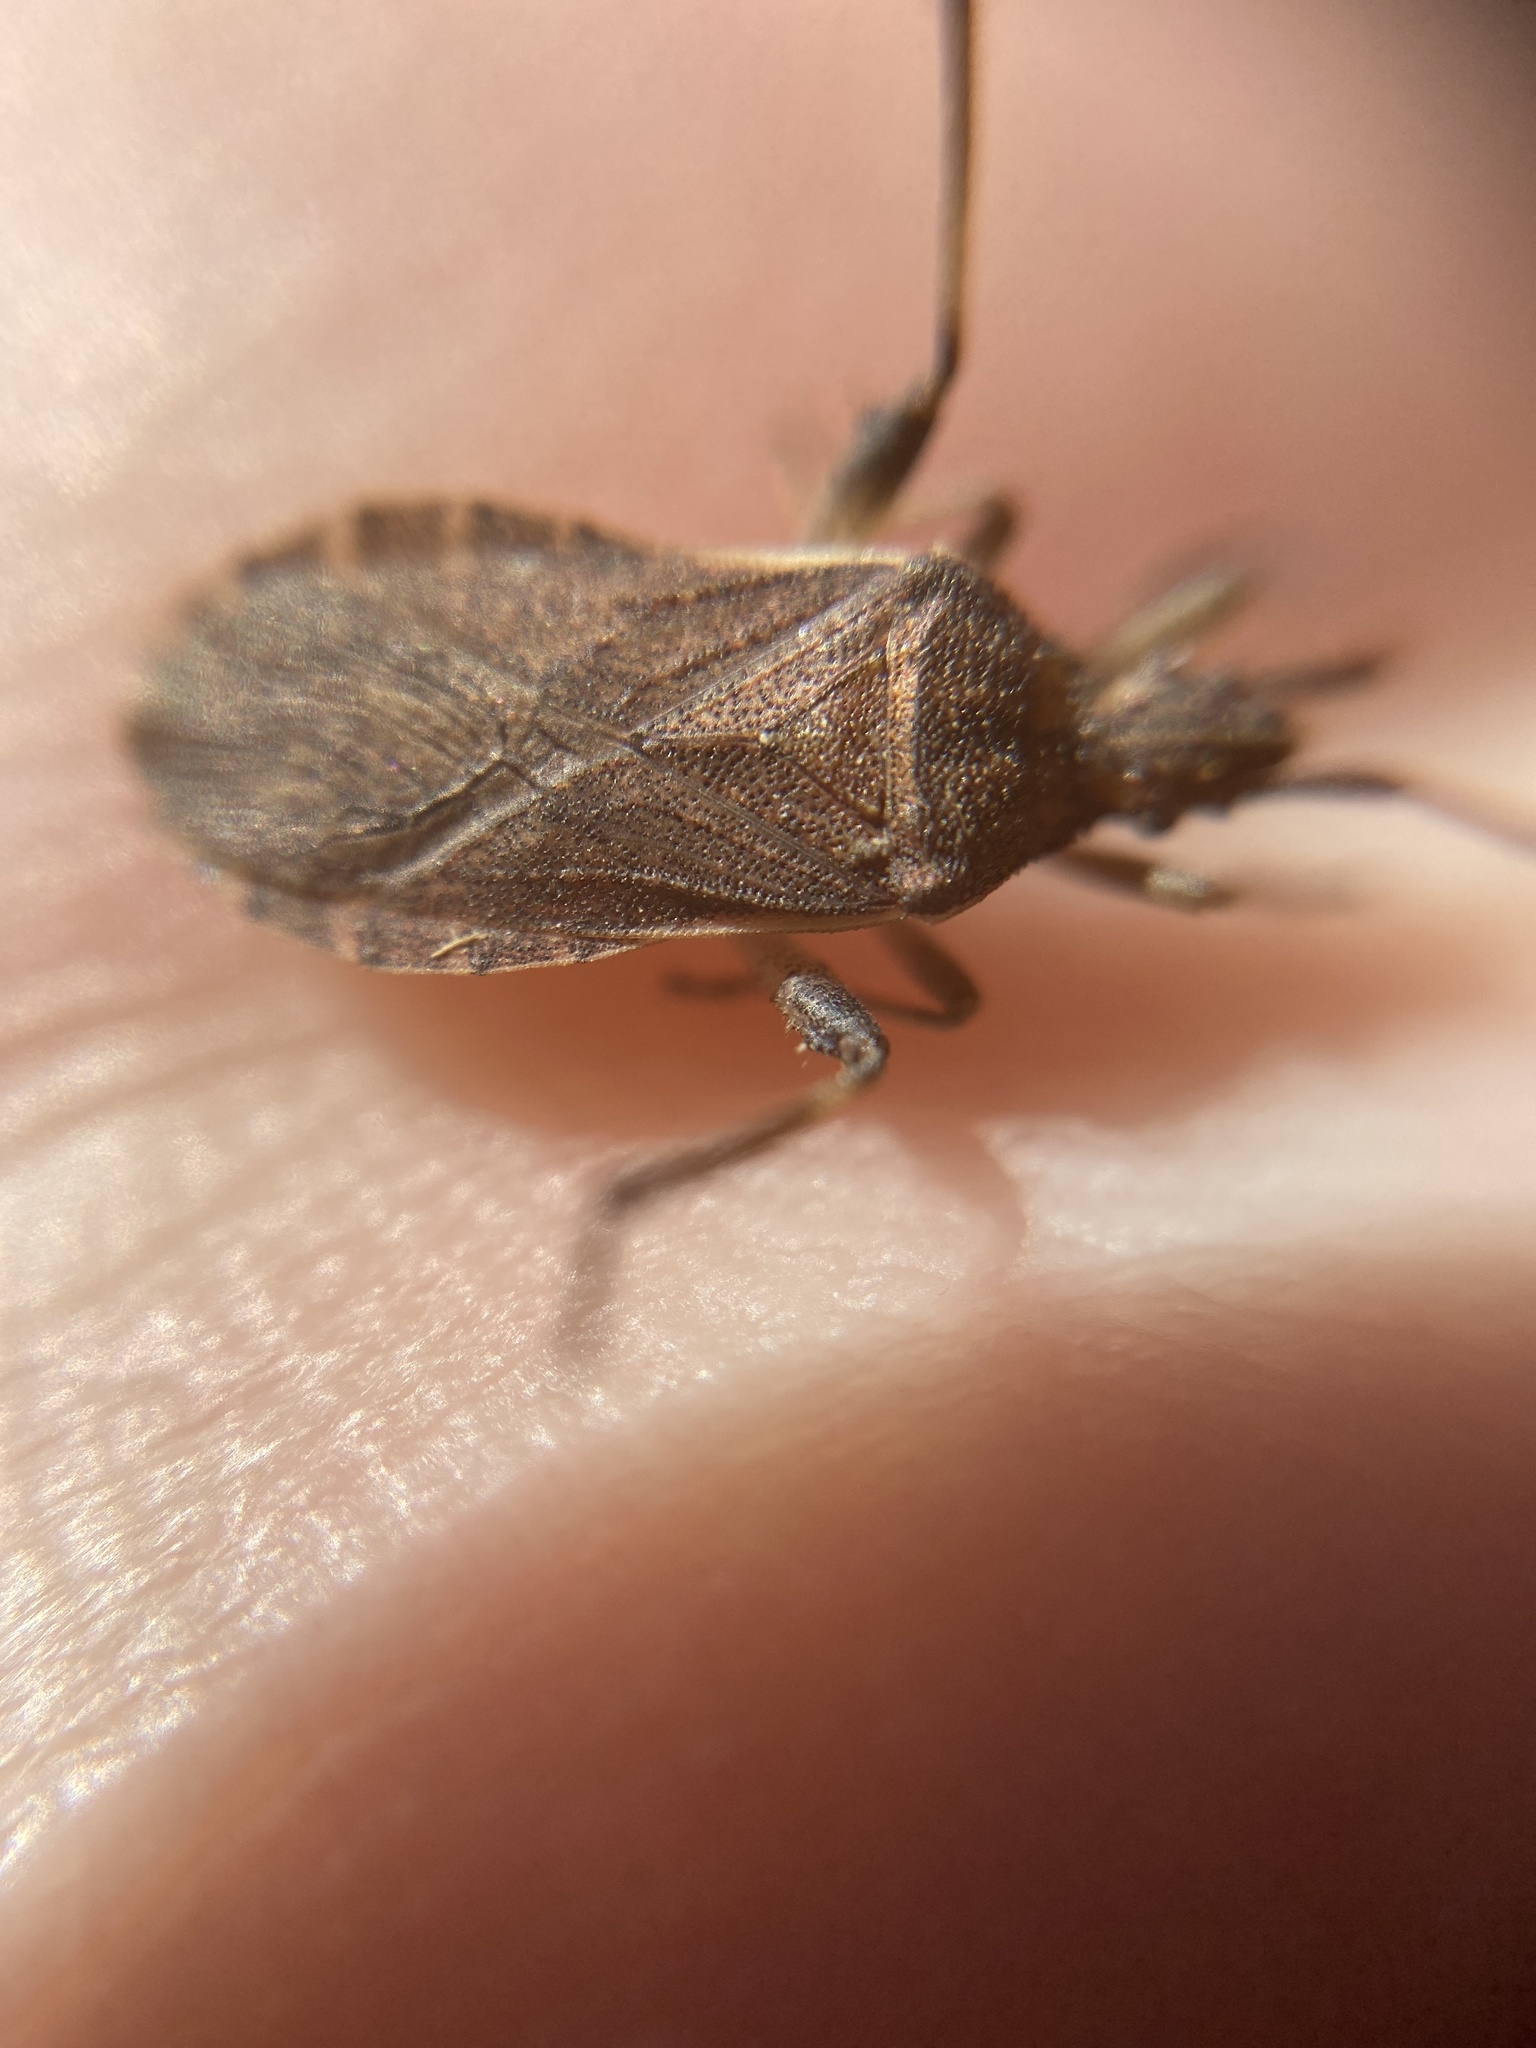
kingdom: Animalia
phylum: Arthropoda
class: Insecta
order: Hemiptera
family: Coreidae
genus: Ceraleptus
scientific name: Ceraleptus lividus
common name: Slender-horned leatherbug
